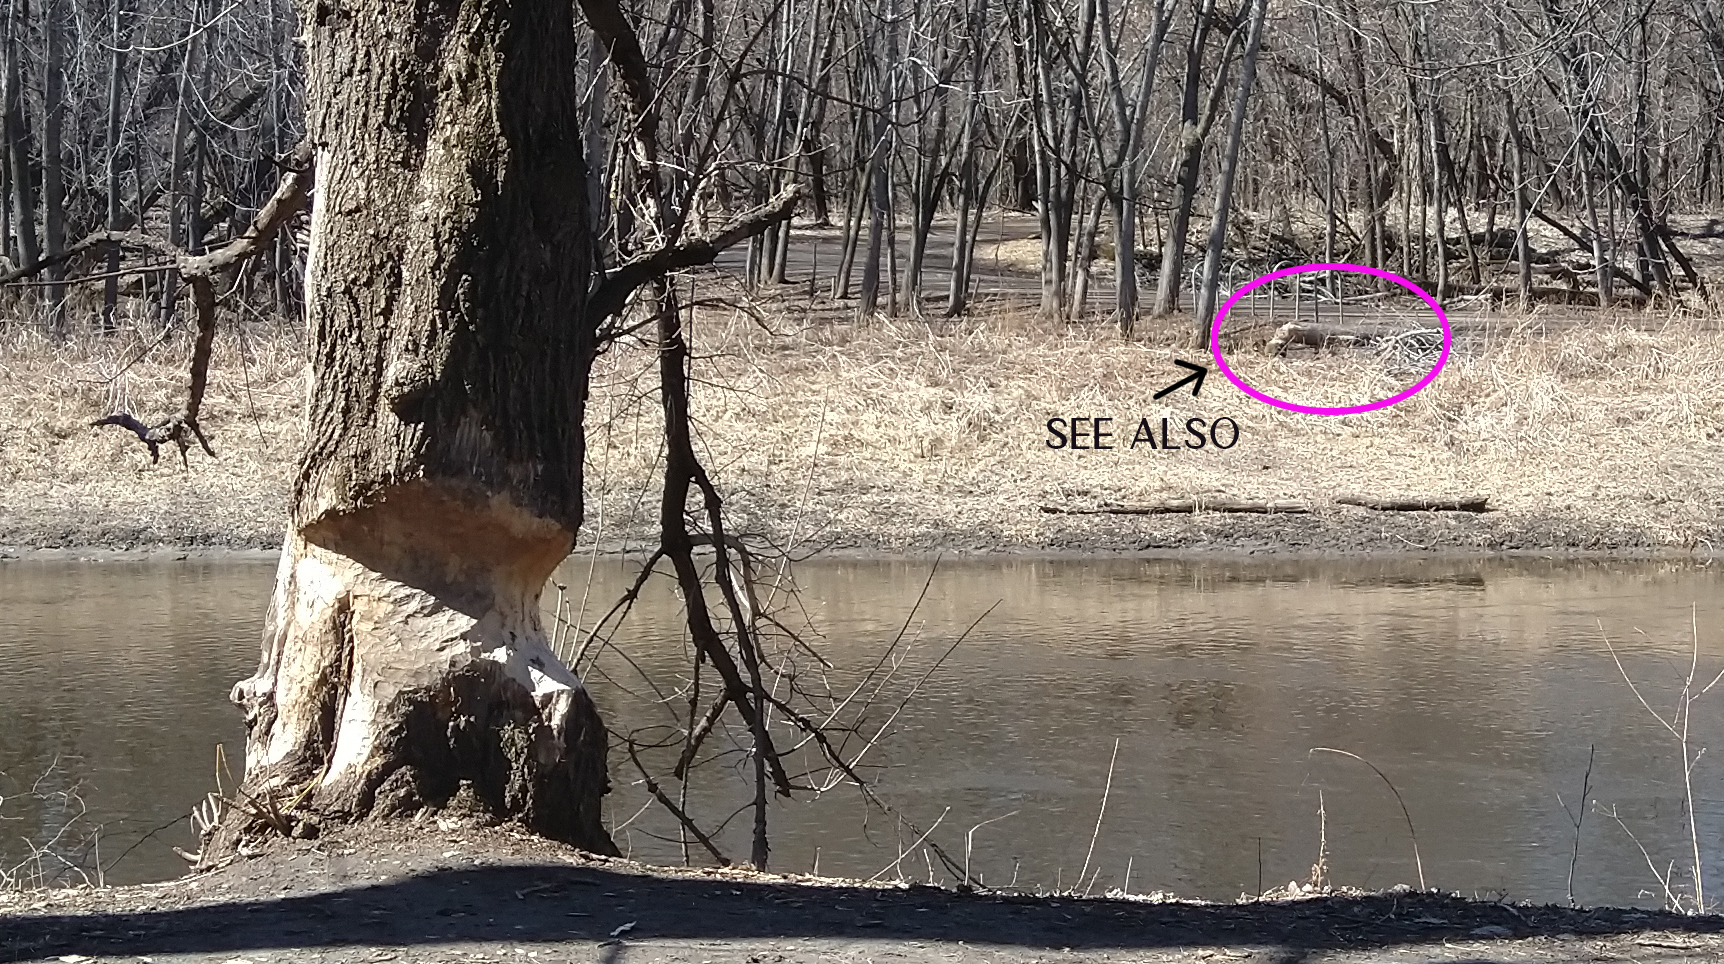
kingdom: Animalia
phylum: Chordata
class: Mammalia
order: Rodentia
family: Castoridae
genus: Castor
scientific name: Castor canadensis
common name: American beaver
